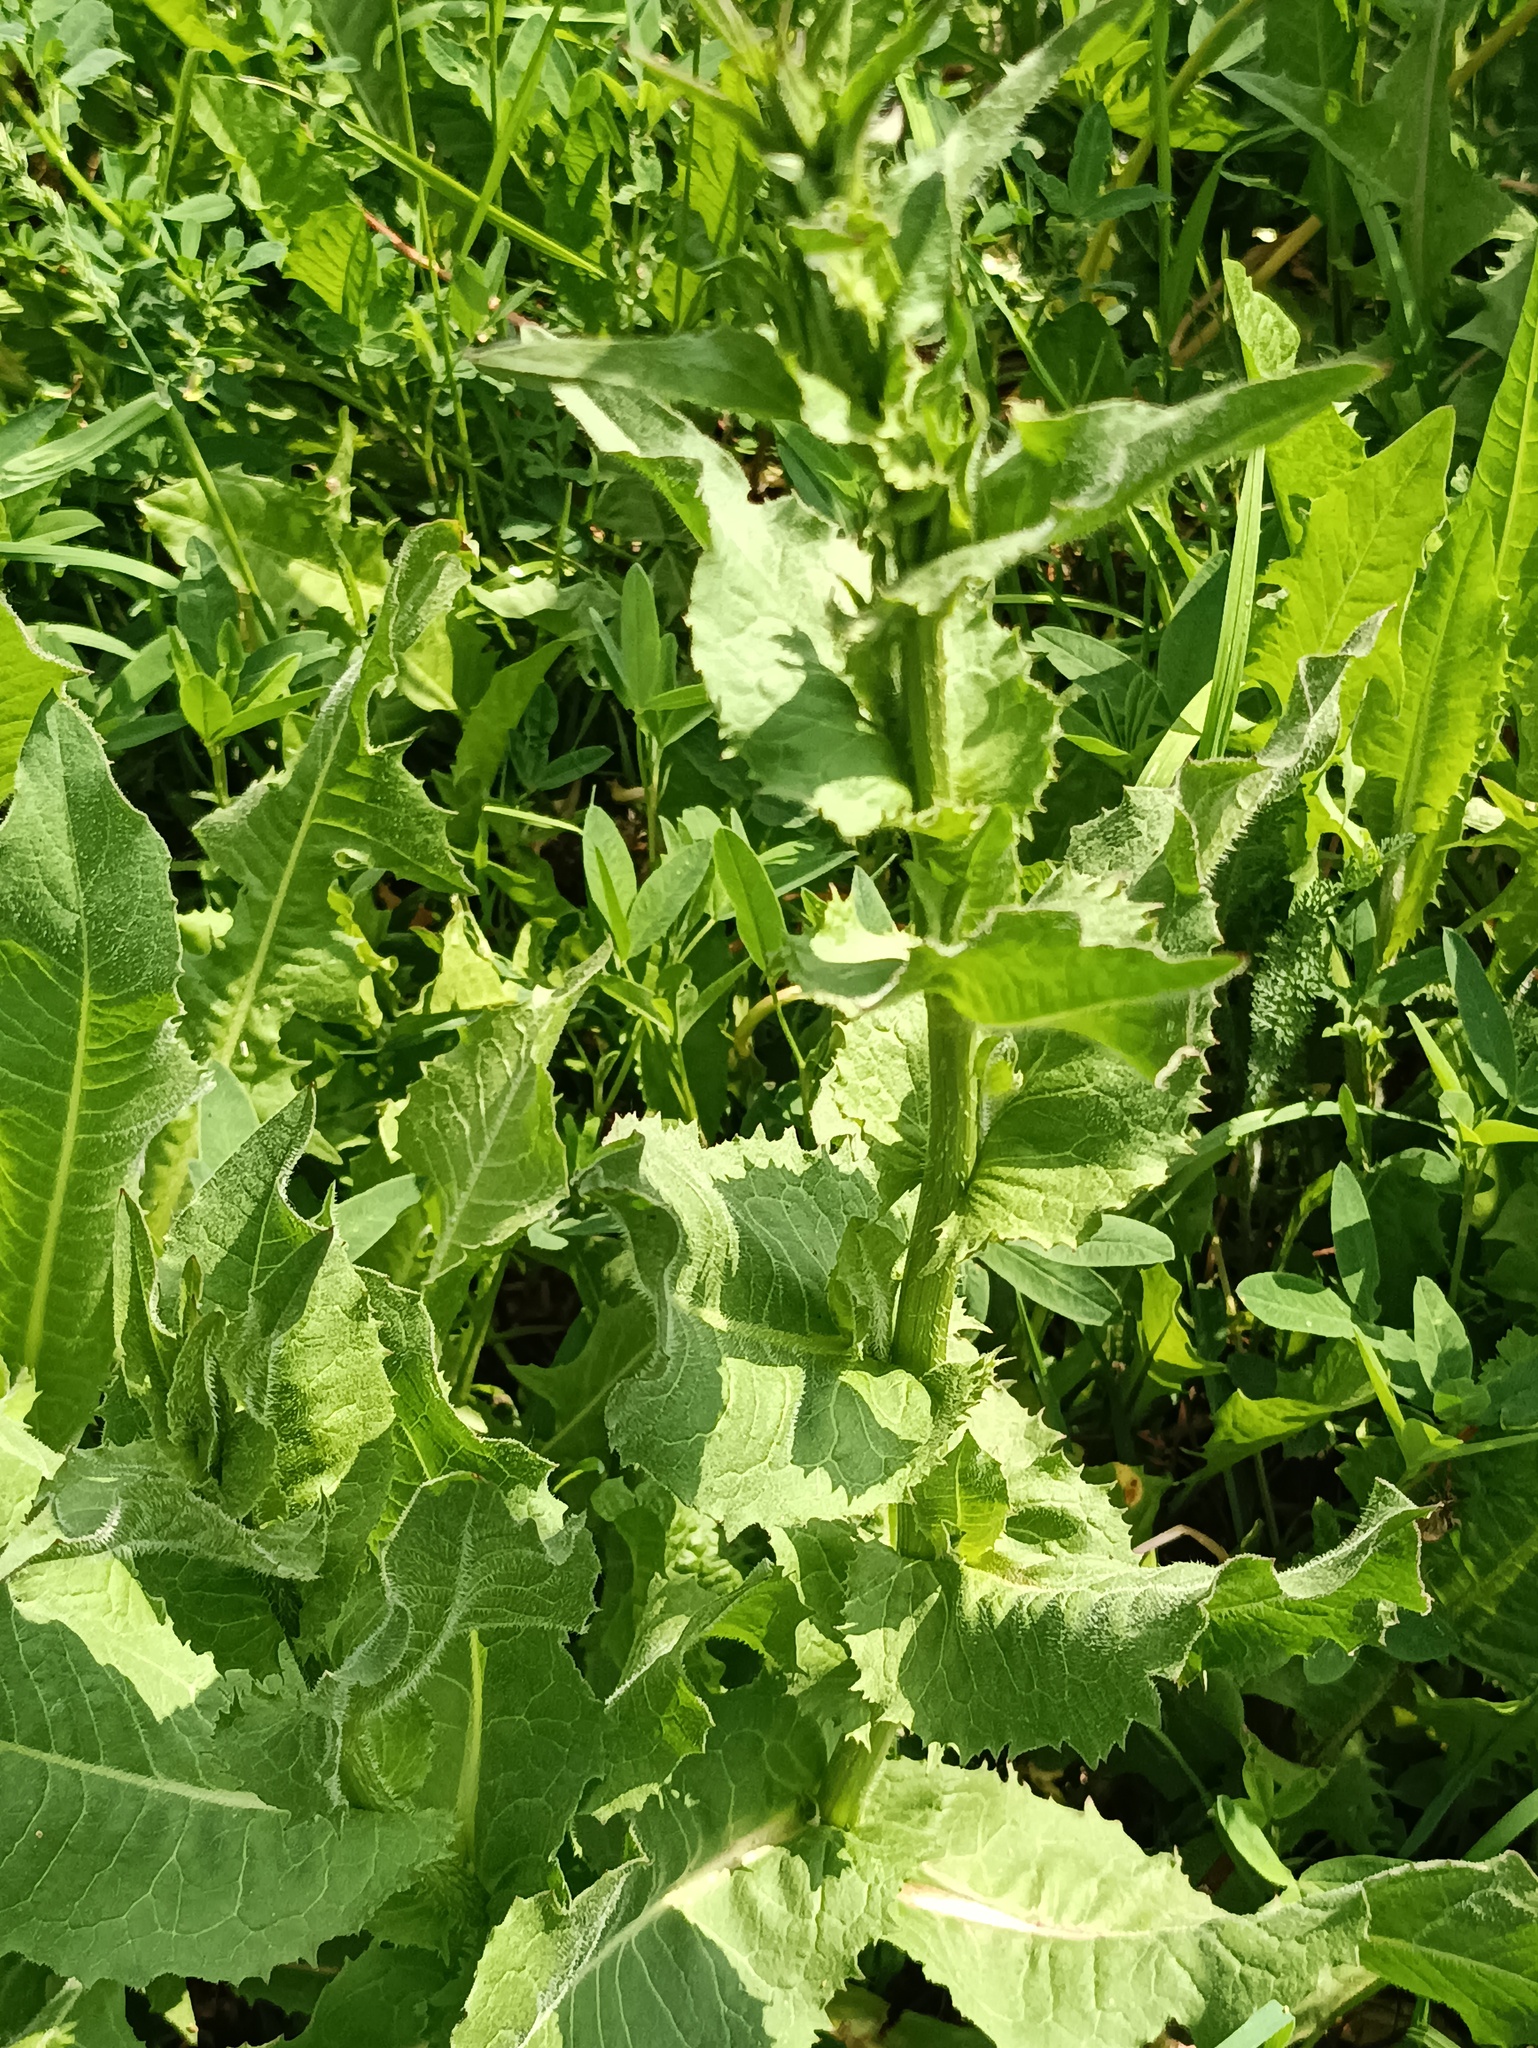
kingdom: Plantae
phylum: Tracheophyta
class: Magnoliopsida
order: Asterales
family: Asteraceae
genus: Cichorium
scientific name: Cichorium intybus
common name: Chicory
